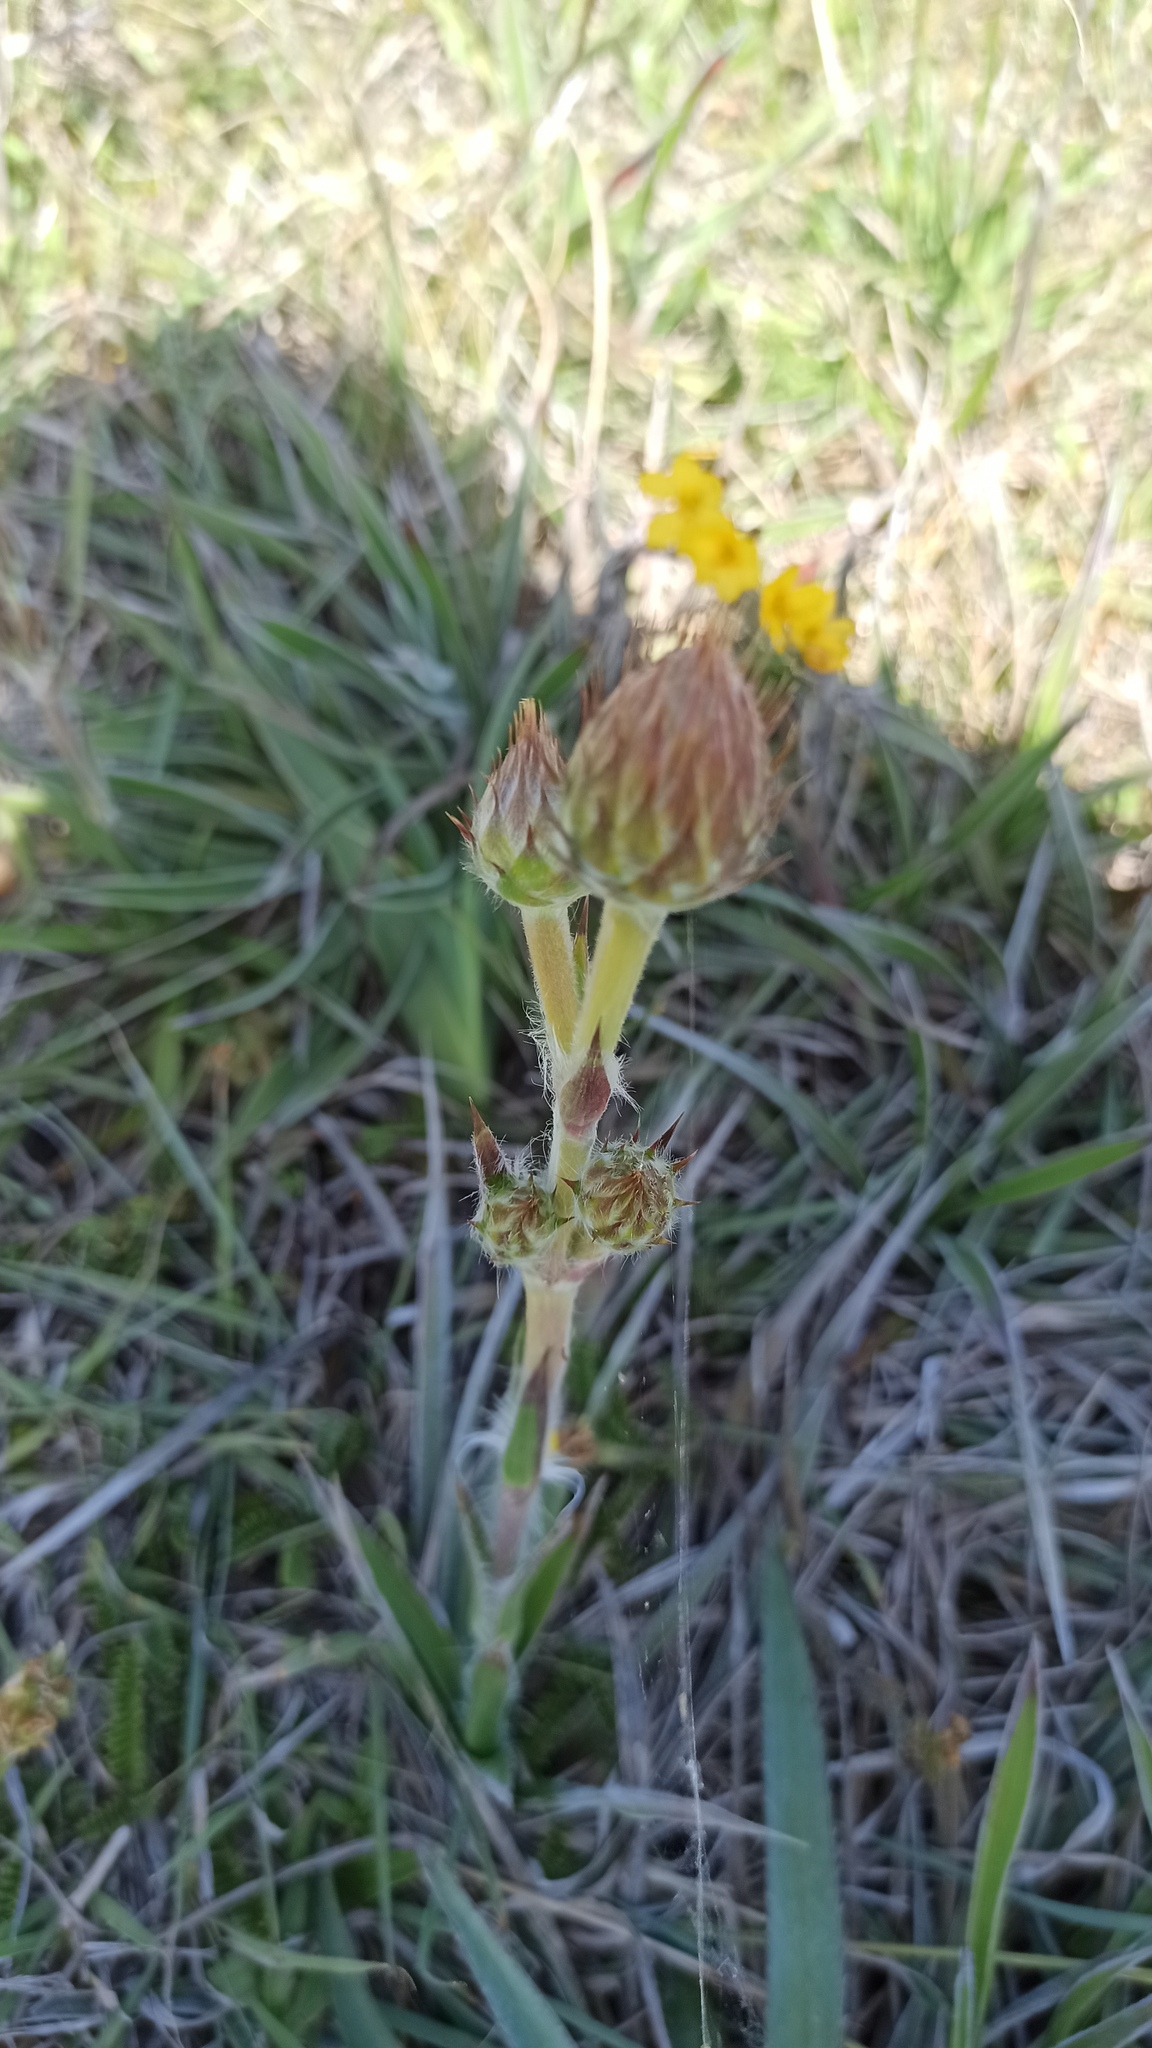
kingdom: Plantae
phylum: Tracheophyta
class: Magnoliopsida
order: Asterales
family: Asteraceae
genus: Schlechtendalia
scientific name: Schlechtendalia luzulifolia
